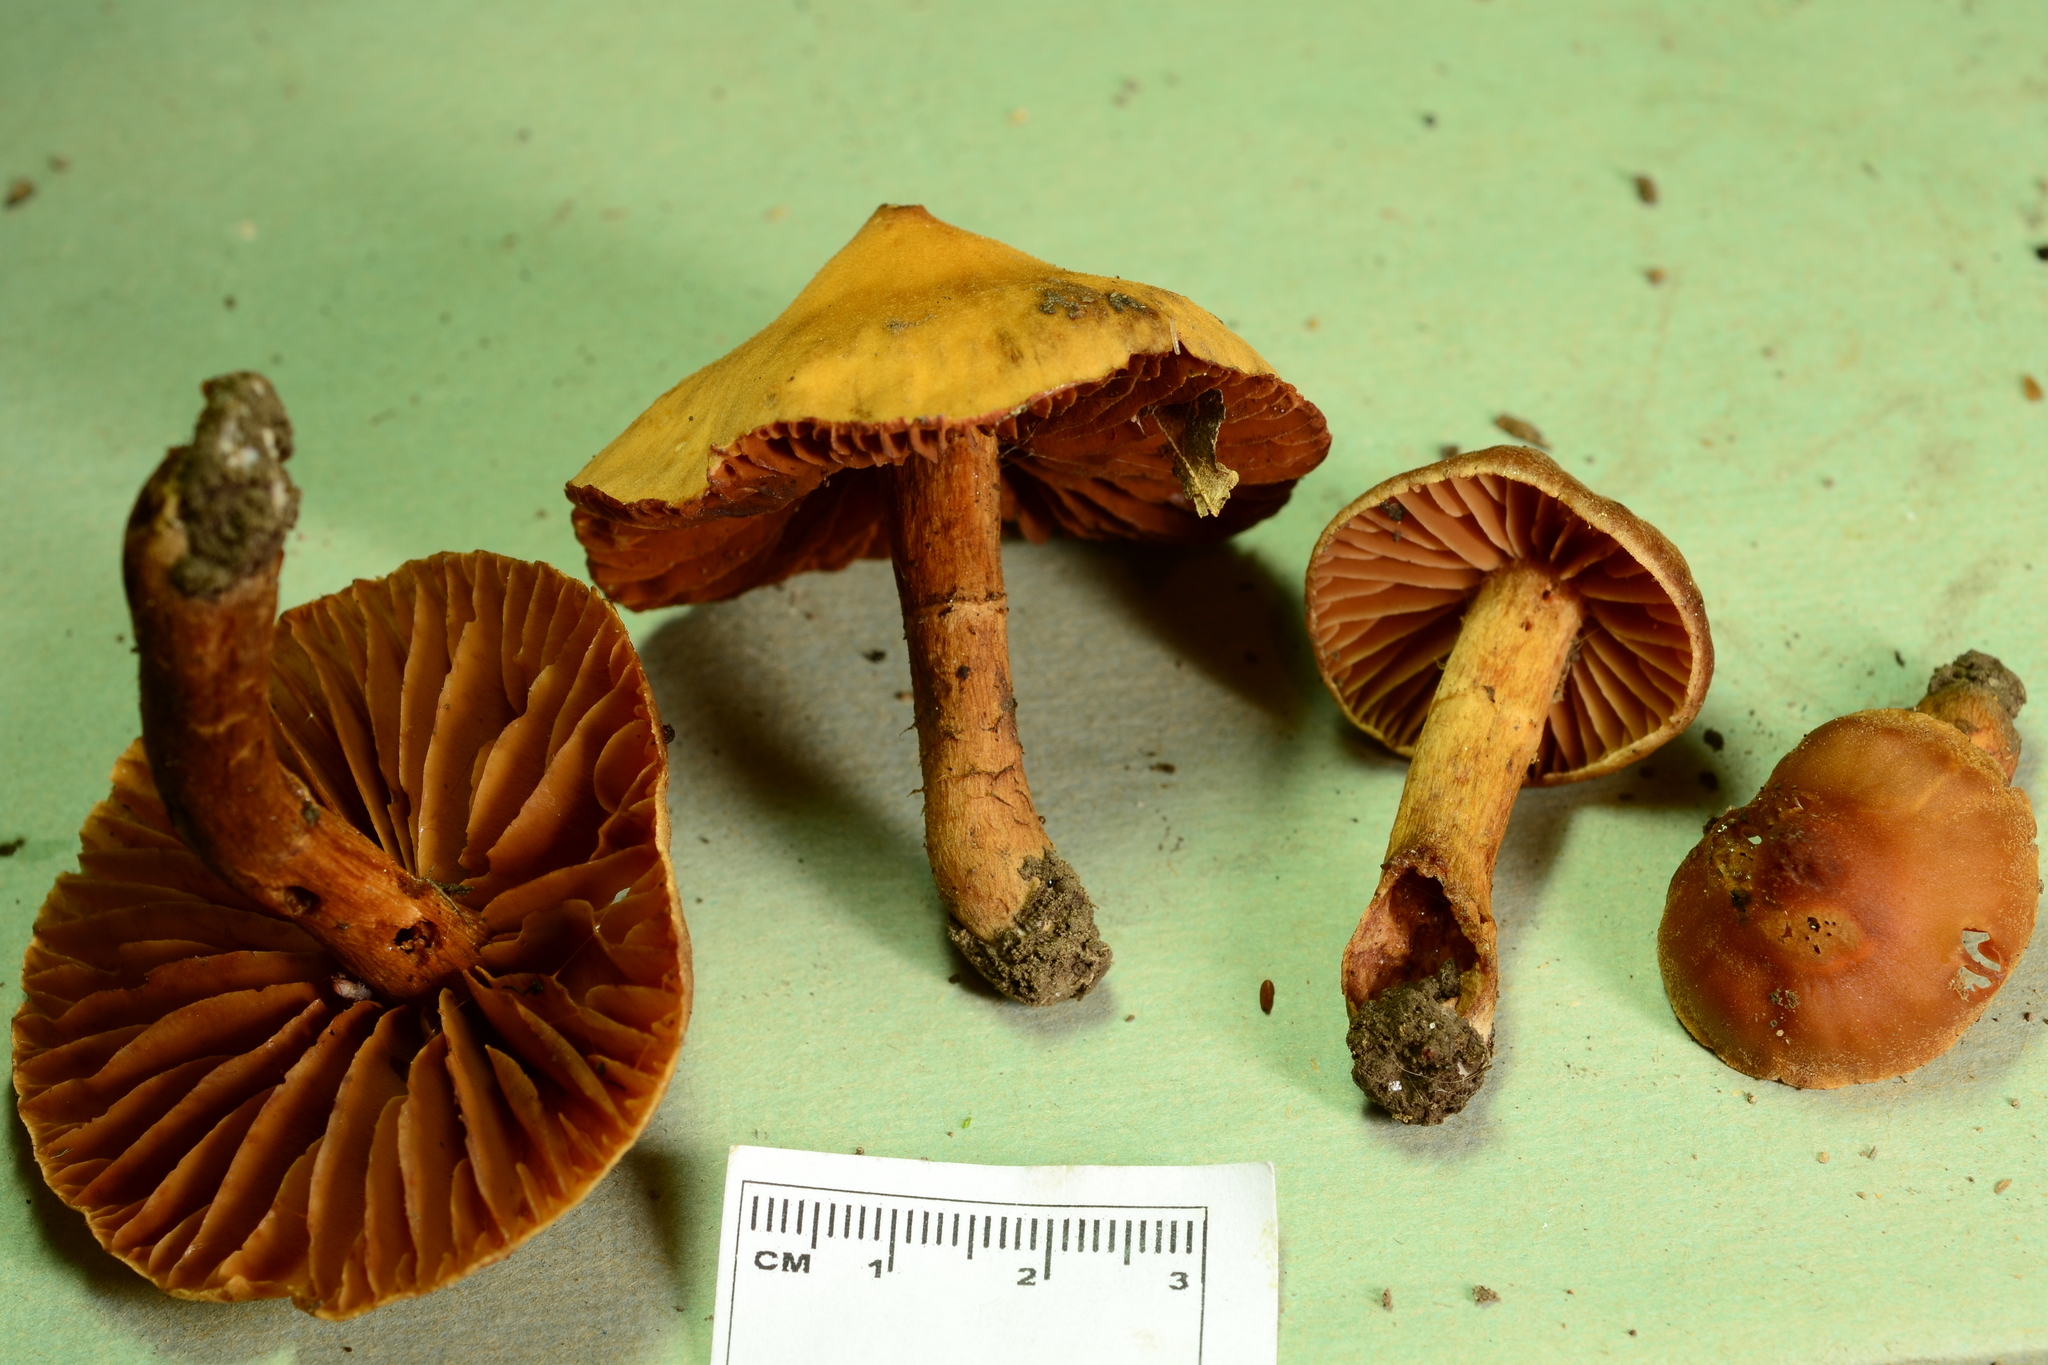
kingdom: Fungi
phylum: Basidiomycota
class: Agaricomycetes
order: Agaricales
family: Cortinariaceae
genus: Cortinarius
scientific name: Cortinarius
